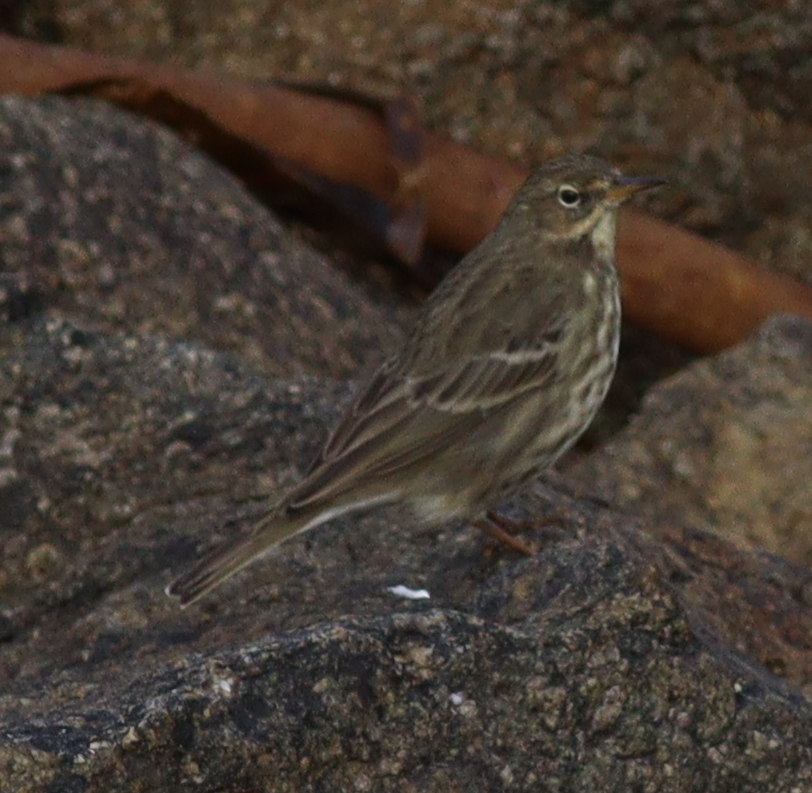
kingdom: Animalia
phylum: Chordata
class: Aves
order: Passeriformes
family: Motacillidae
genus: Anthus
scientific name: Anthus petrosus
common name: Eurasian rock pipit
